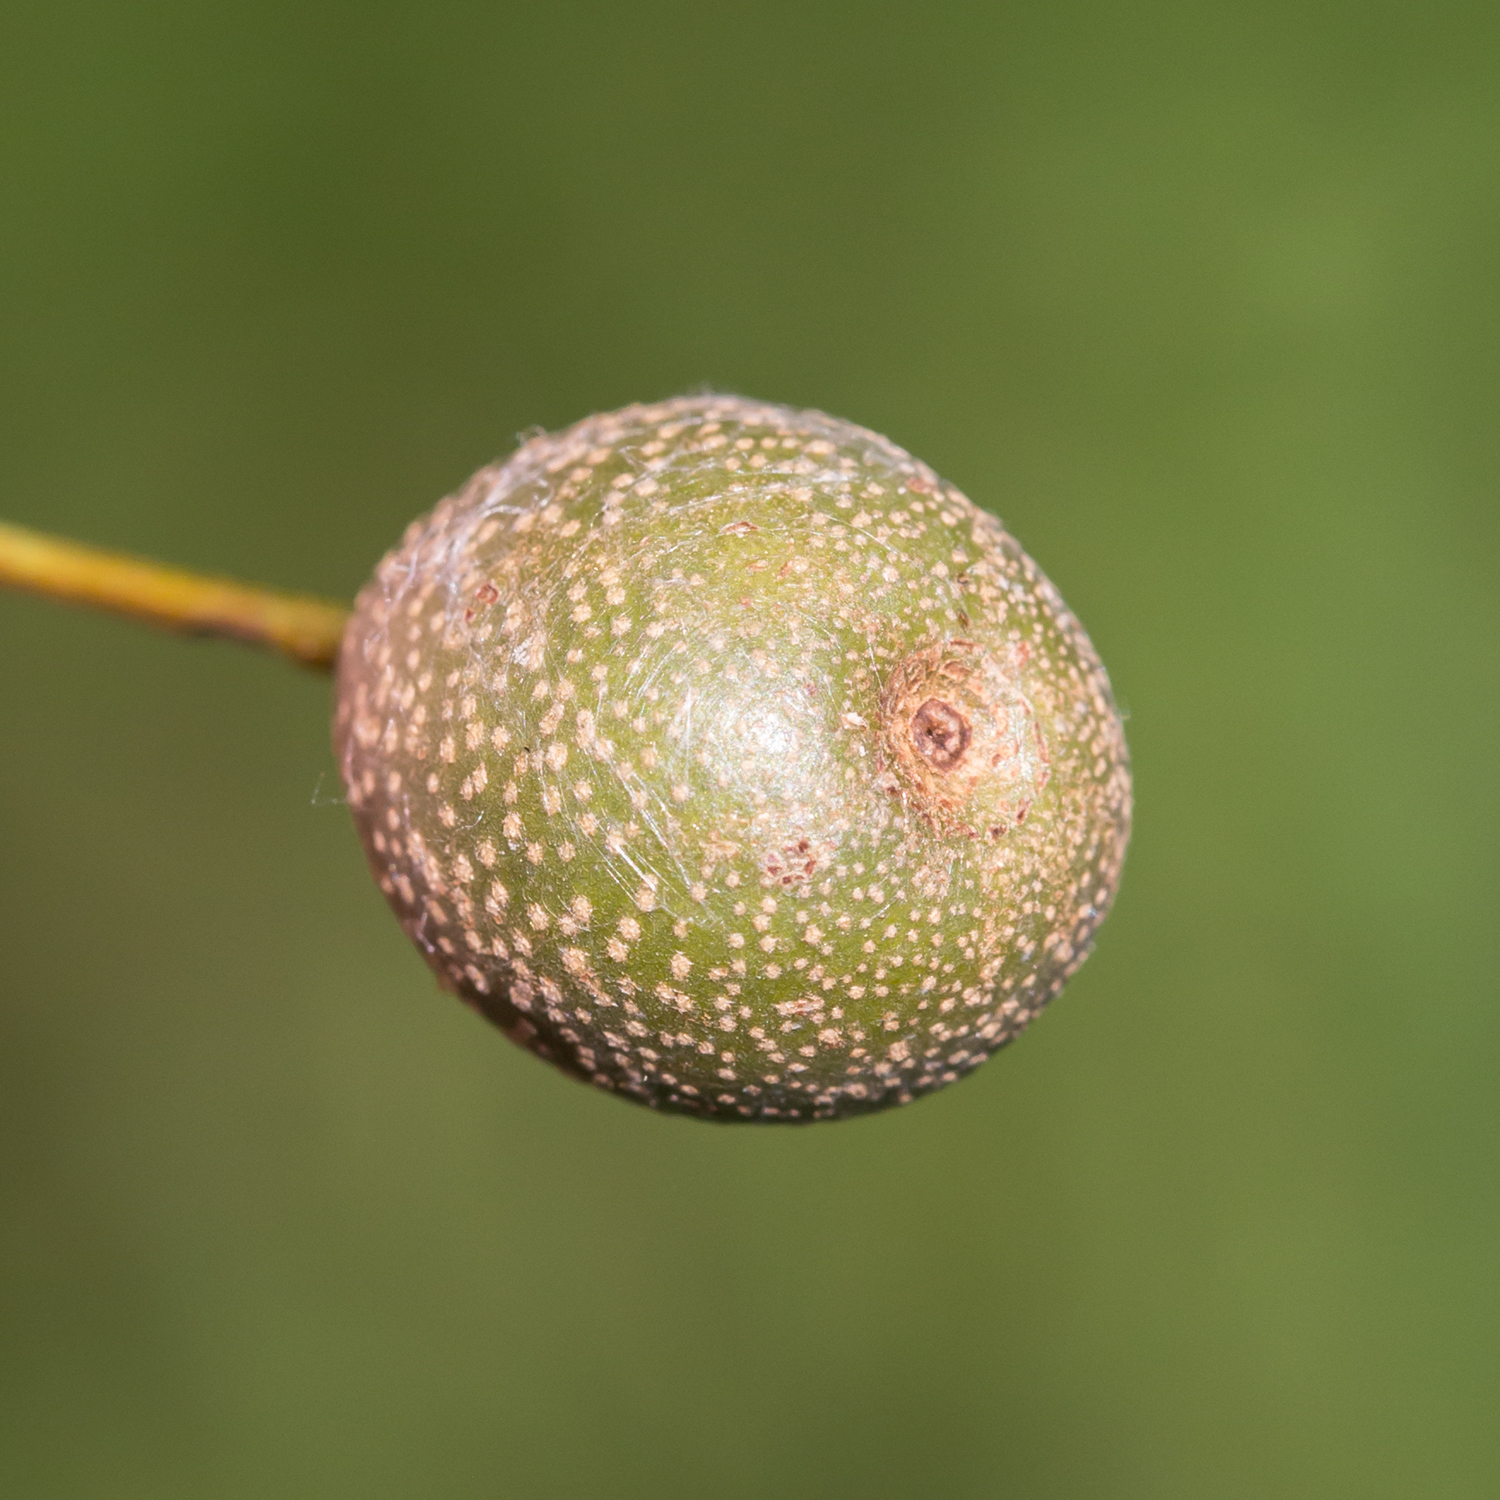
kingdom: Plantae
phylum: Tracheophyta
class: Magnoliopsida
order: Rosales
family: Rosaceae
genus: Pyrus
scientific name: Pyrus calleryana
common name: Callery pear
